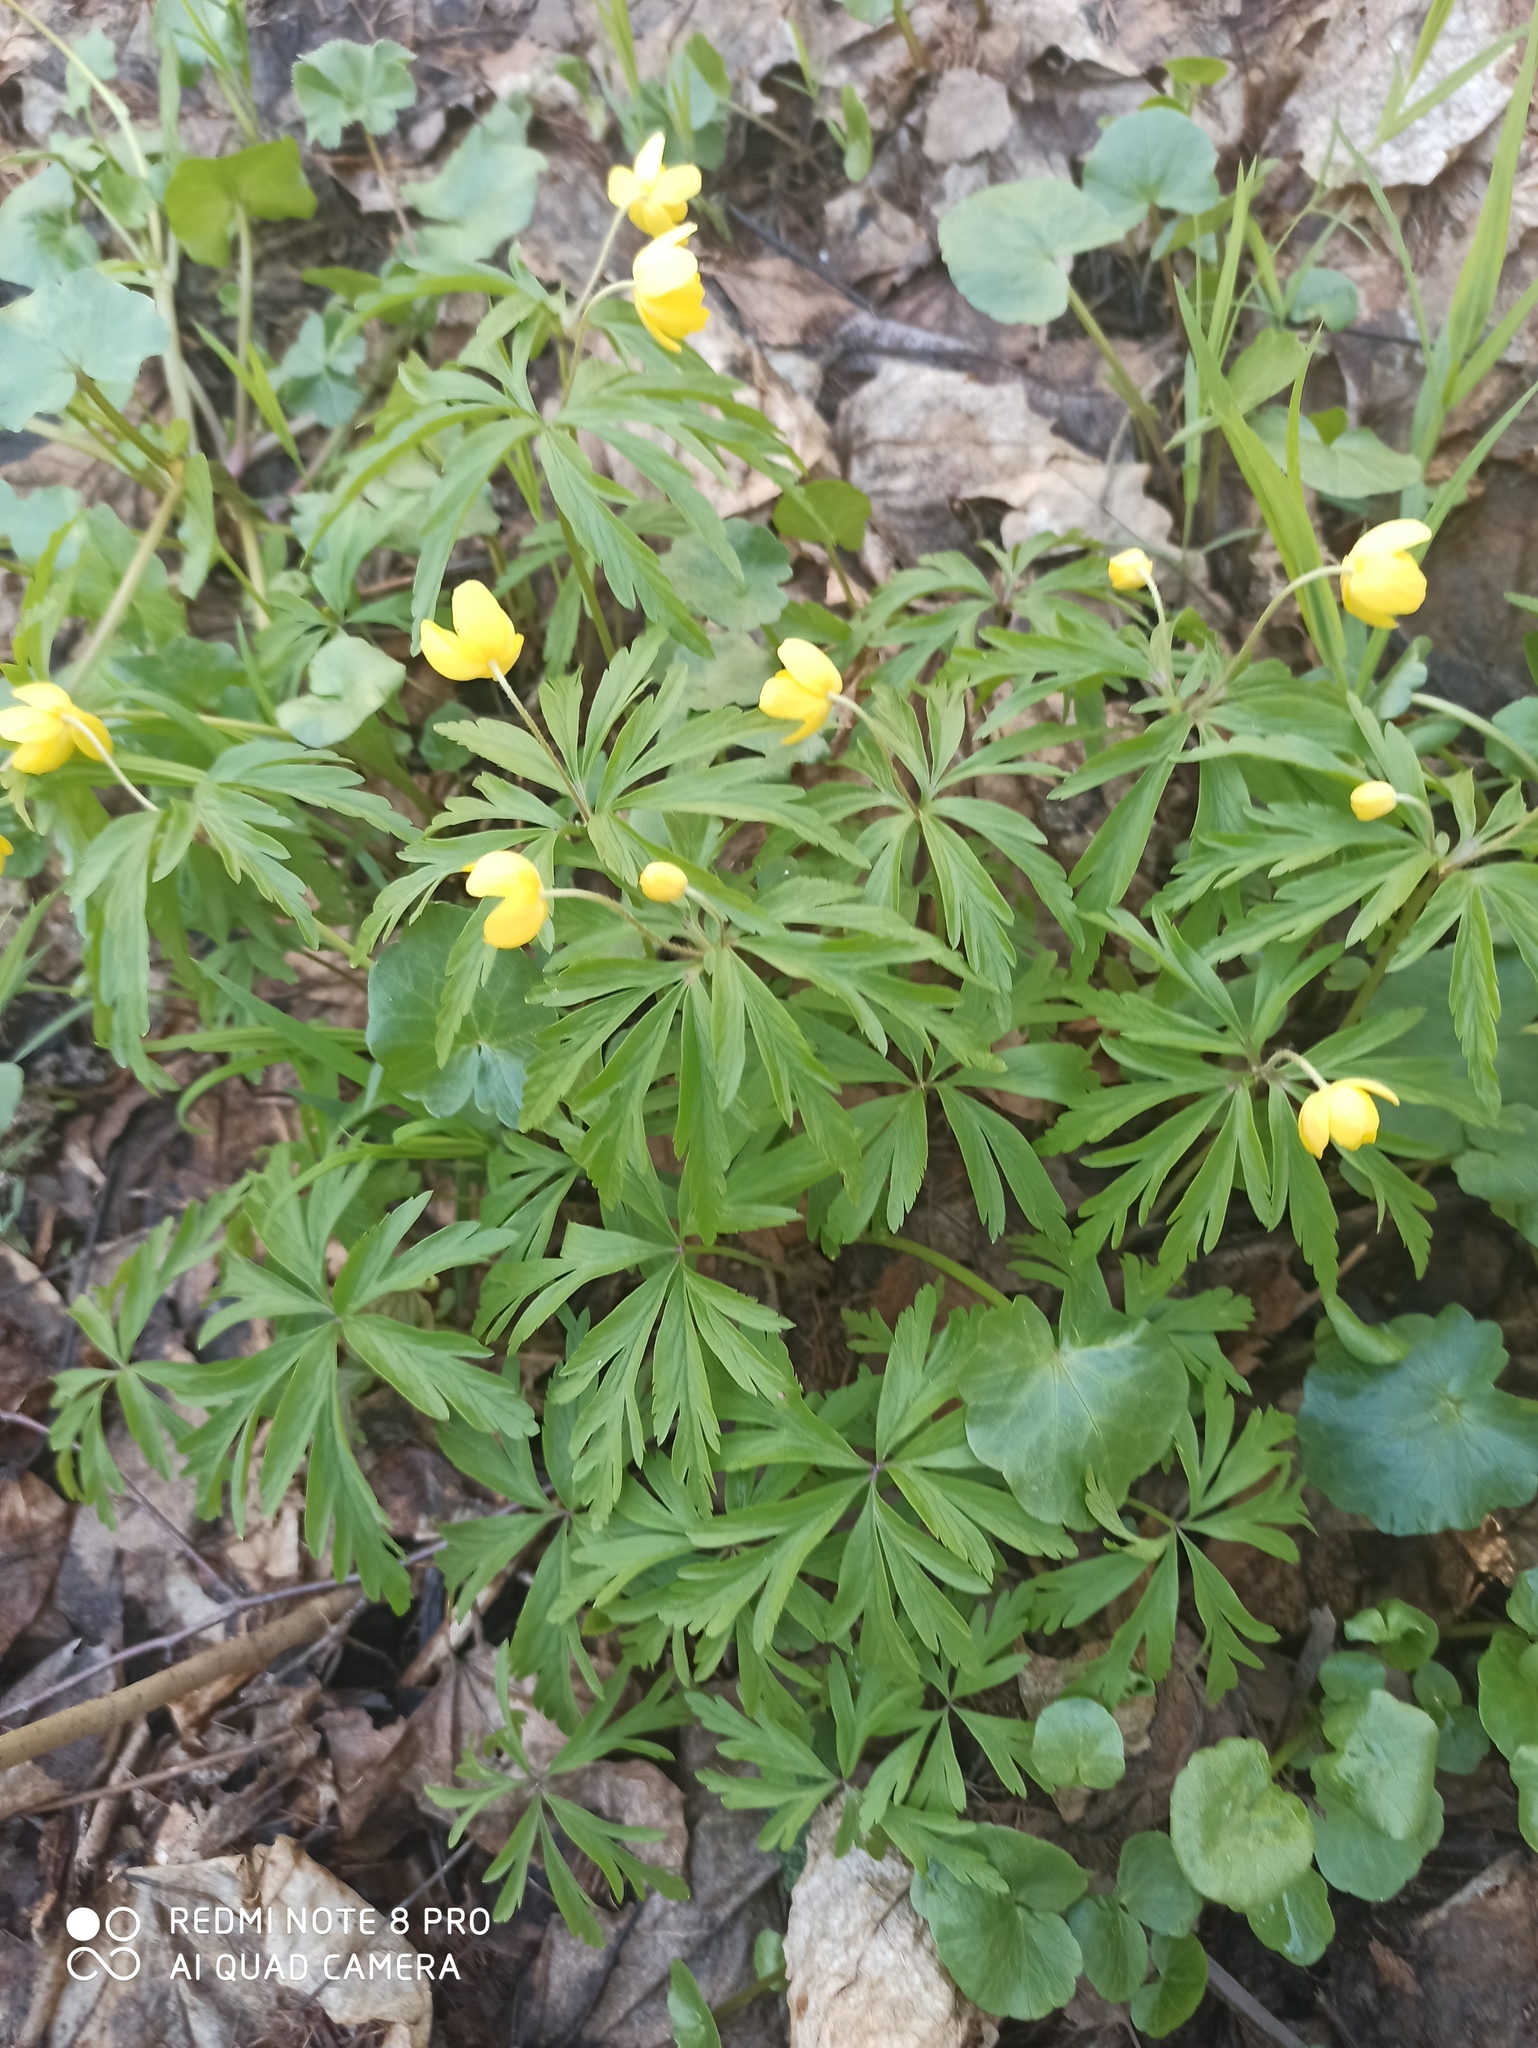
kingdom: Plantae
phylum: Tracheophyta
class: Magnoliopsida
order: Ranunculales
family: Ranunculaceae
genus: Anemone
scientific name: Anemone ranunculoides
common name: Yellow anemone
